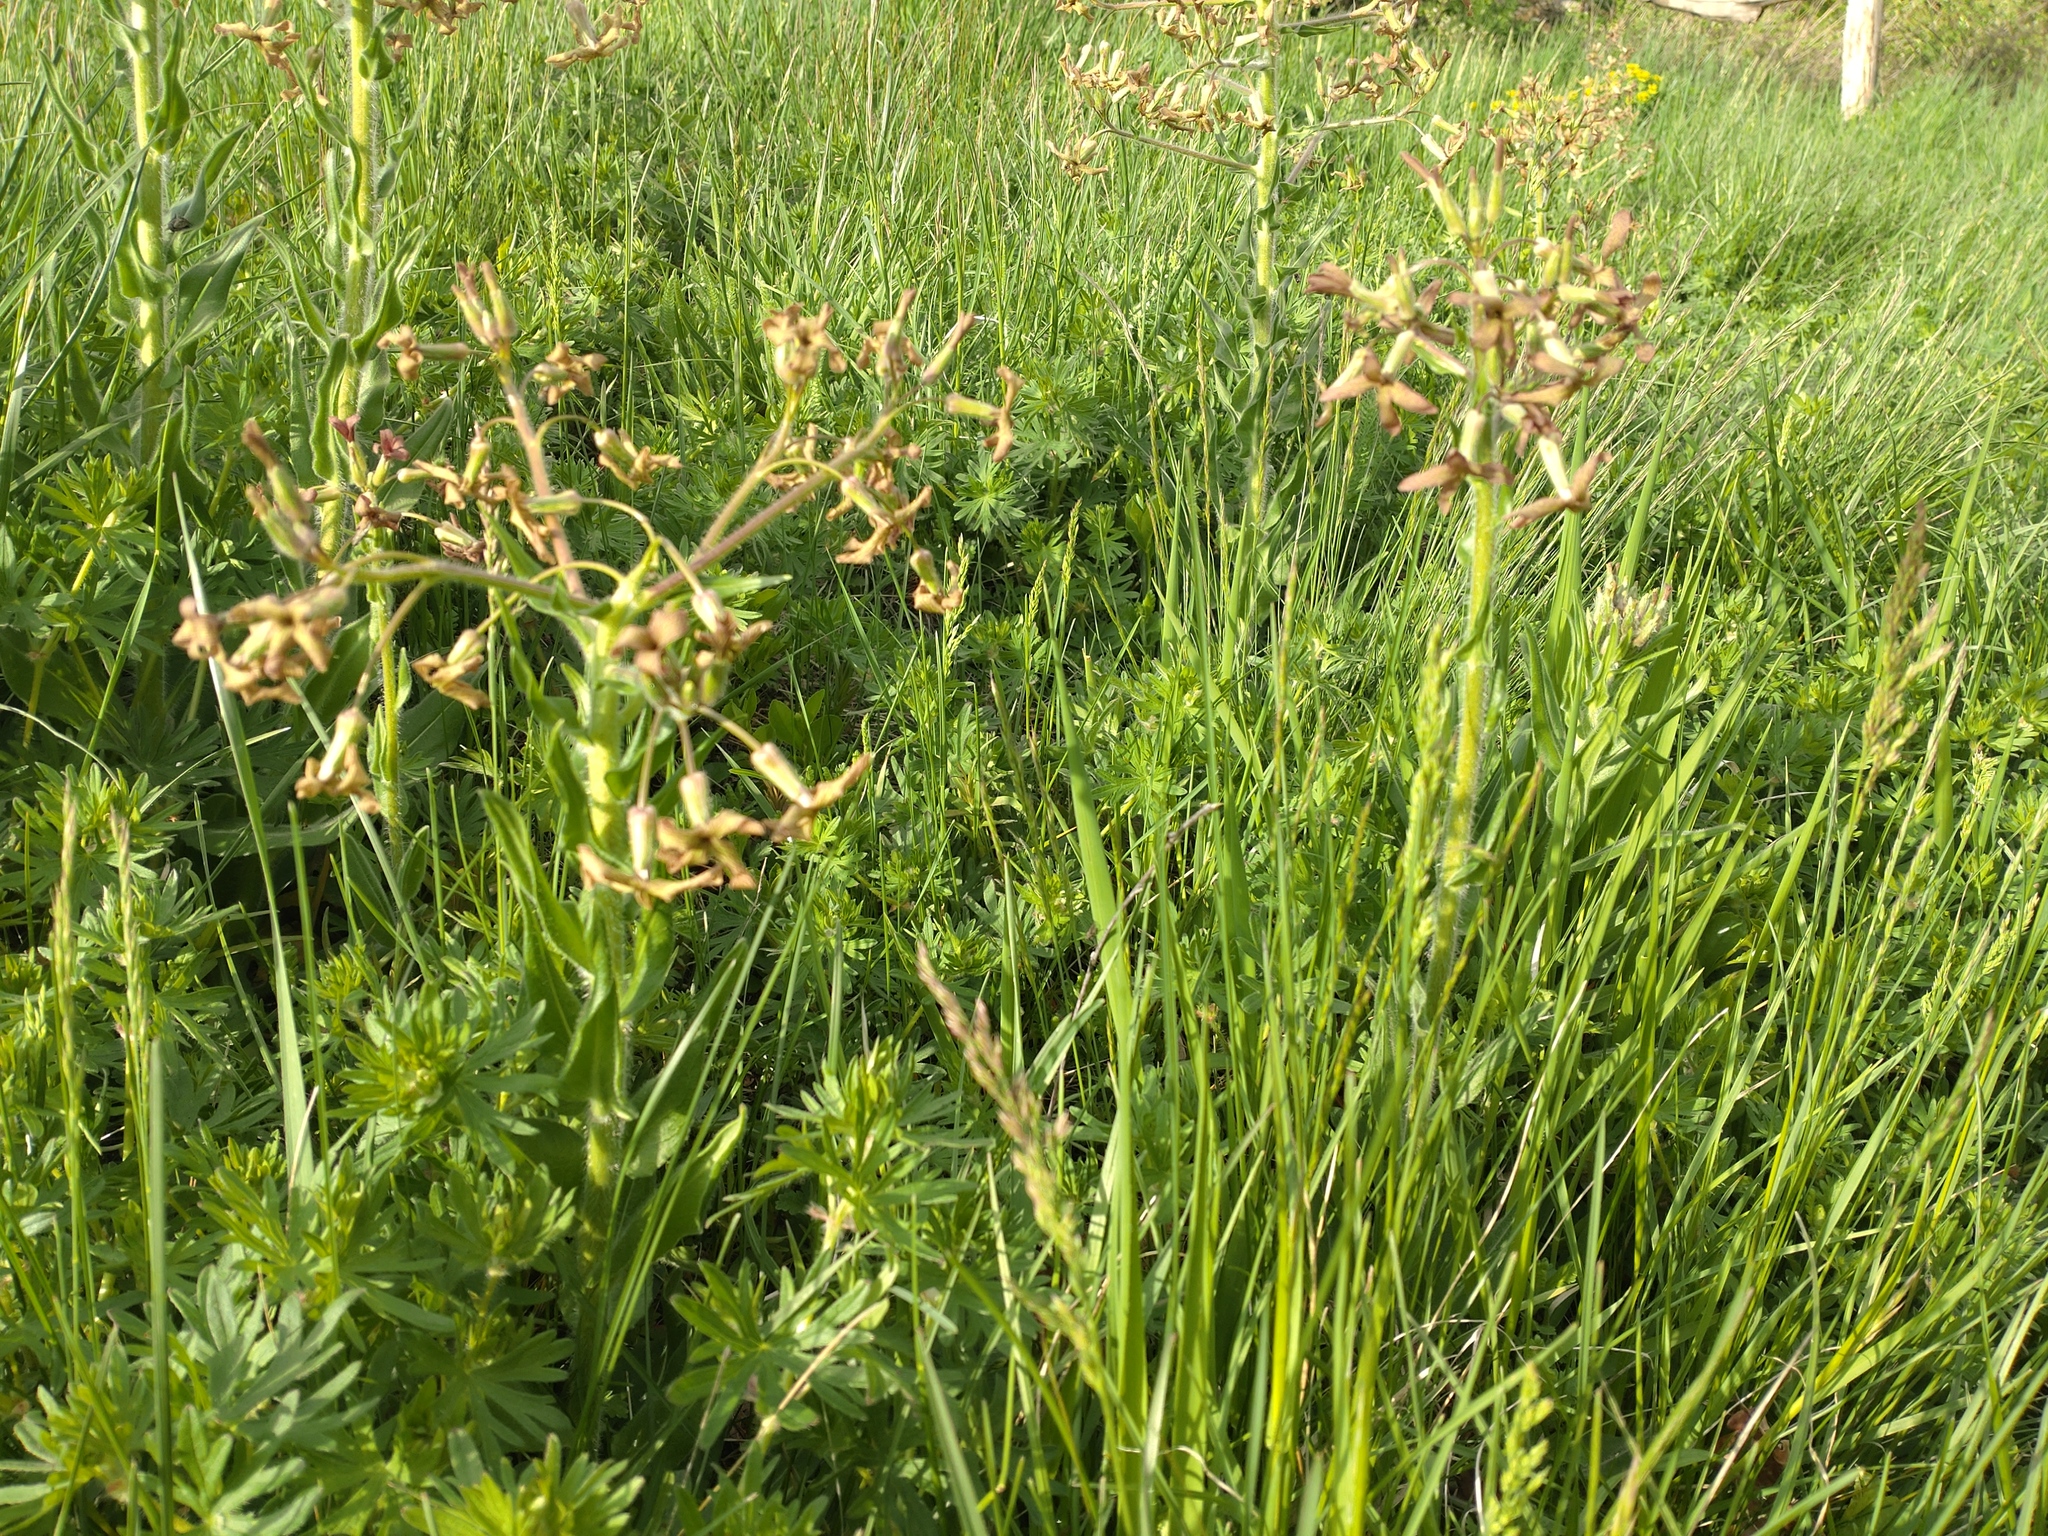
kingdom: Plantae
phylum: Tracheophyta
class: Magnoliopsida
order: Brassicales
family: Brassicaceae
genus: Hesperis
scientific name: Hesperis tristis
